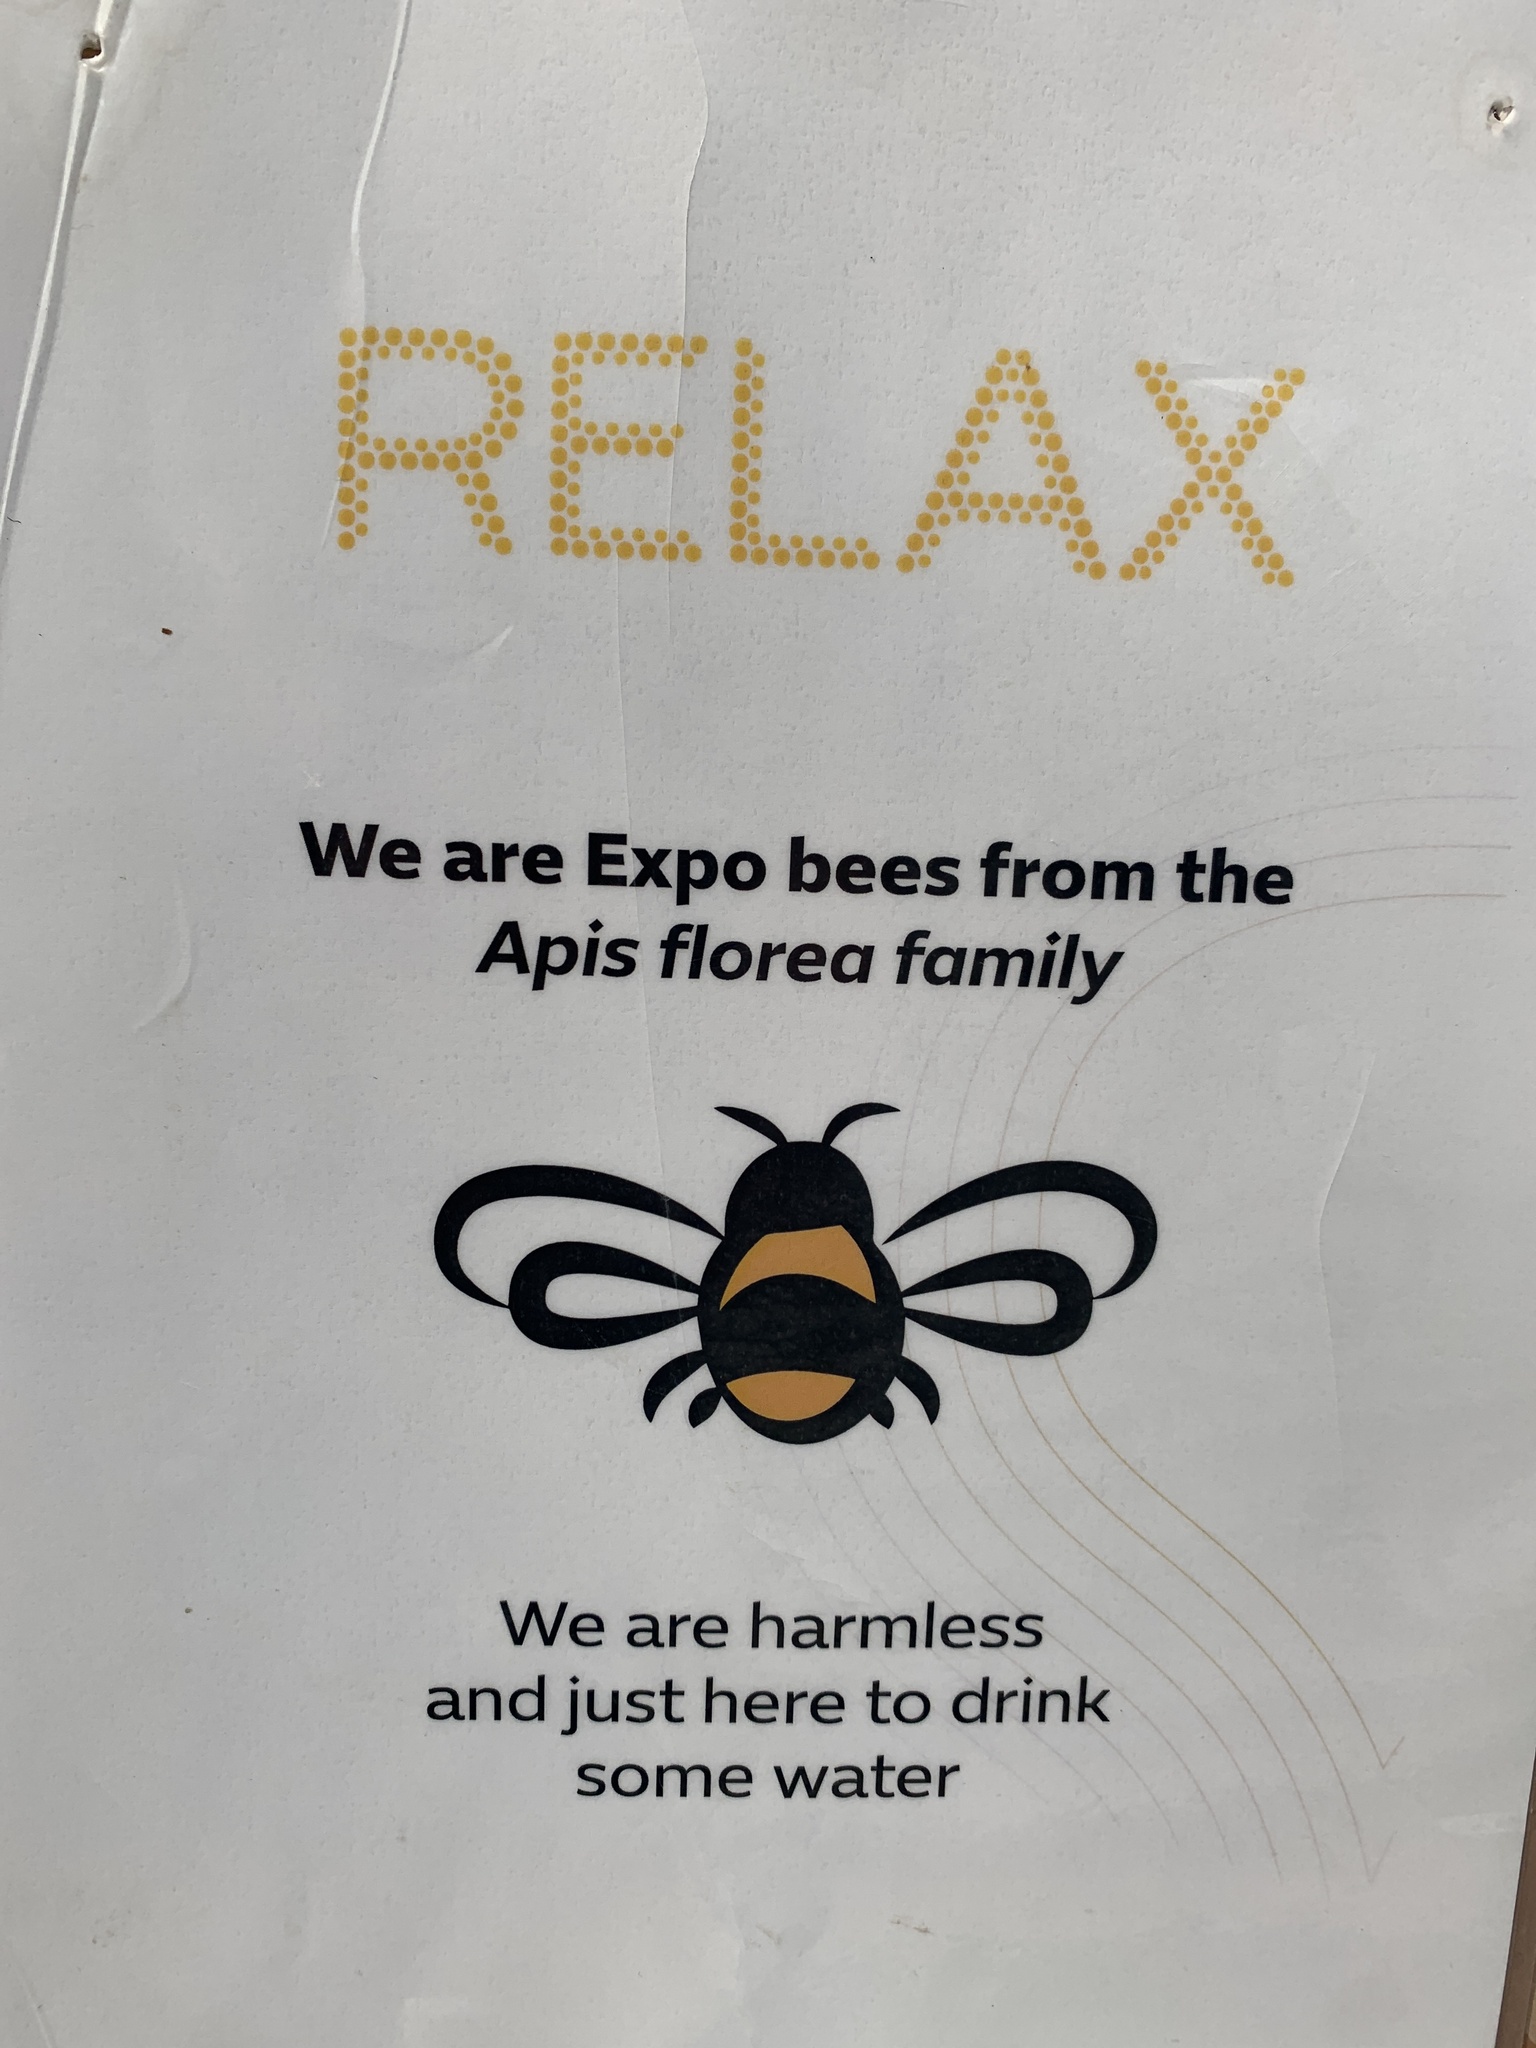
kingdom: Animalia
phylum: Arthropoda
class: Insecta
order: Hymenoptera
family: Apidae
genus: Apis
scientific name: Apis florea
